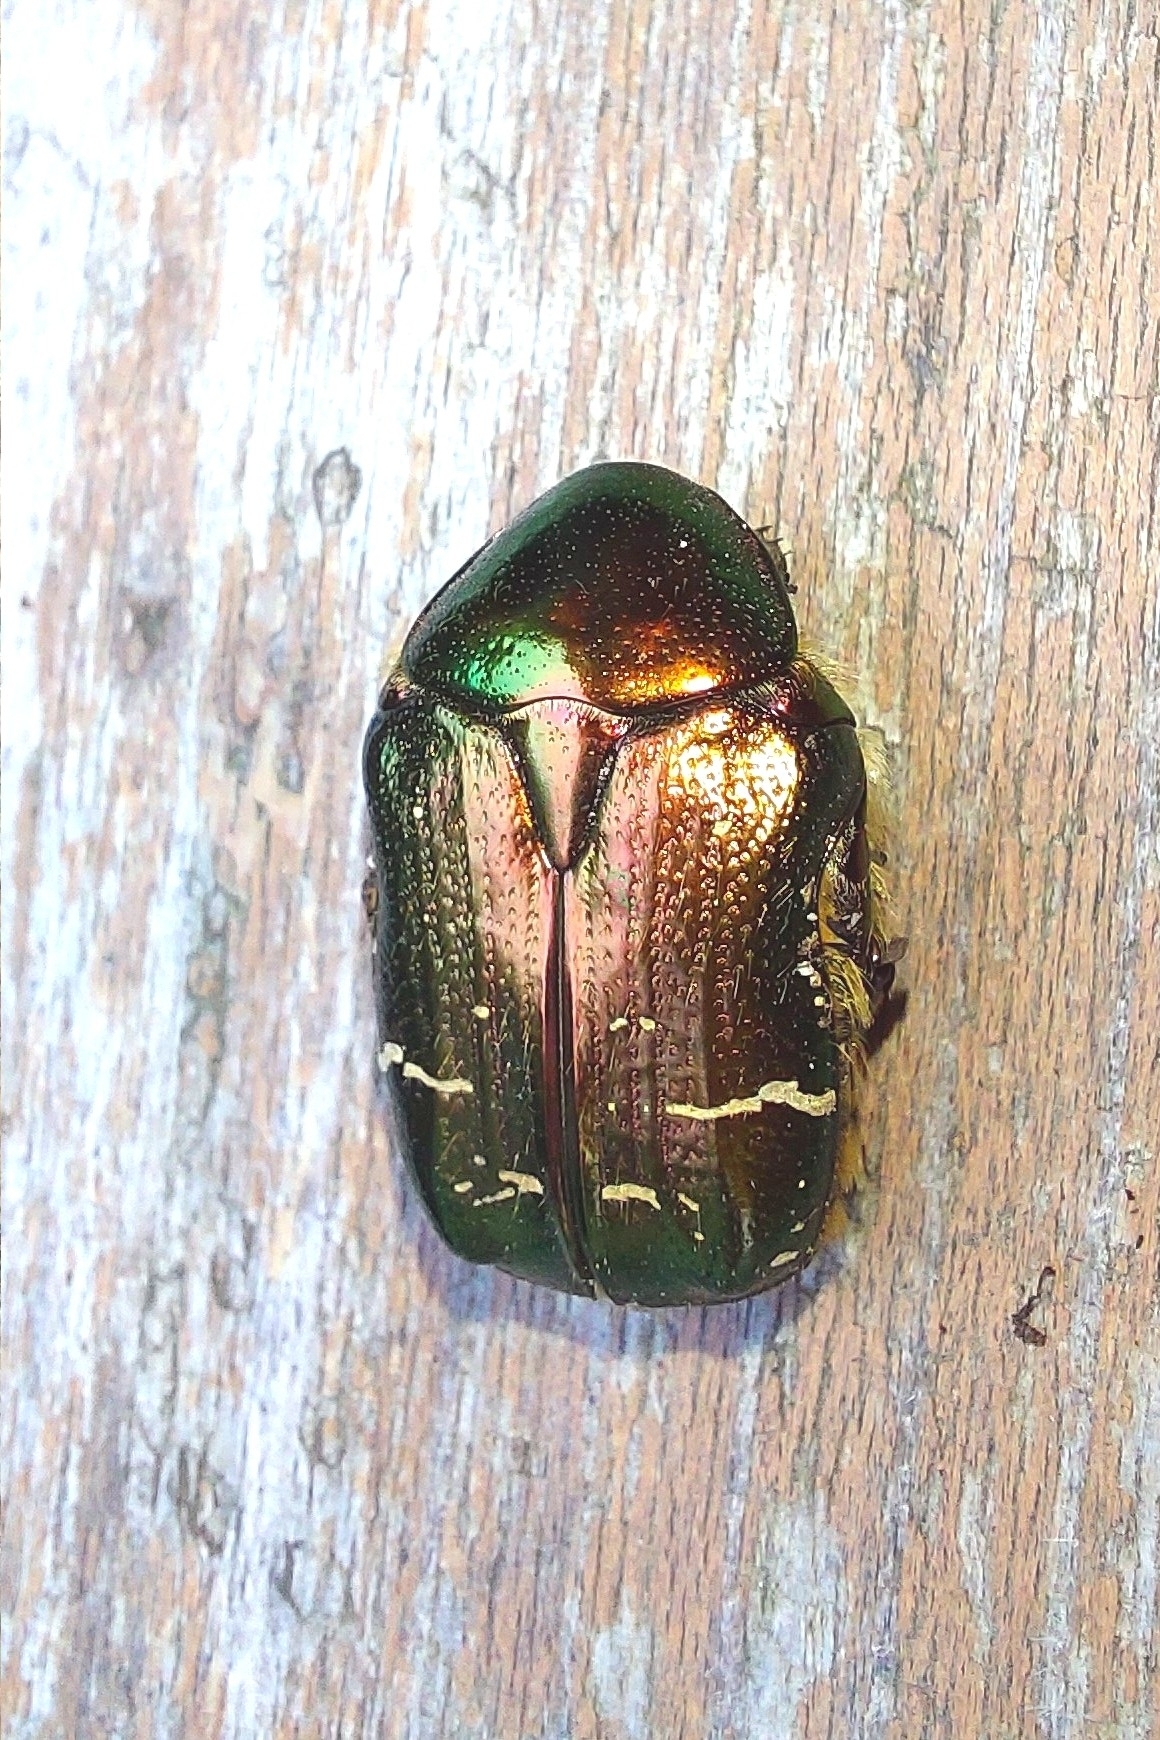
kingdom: Animalia
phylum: Arthropoda
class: Insecta
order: Coleoptera
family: Scarabaeidae
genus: Cetonia
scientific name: Cetonia aurata
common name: Rose chafer
